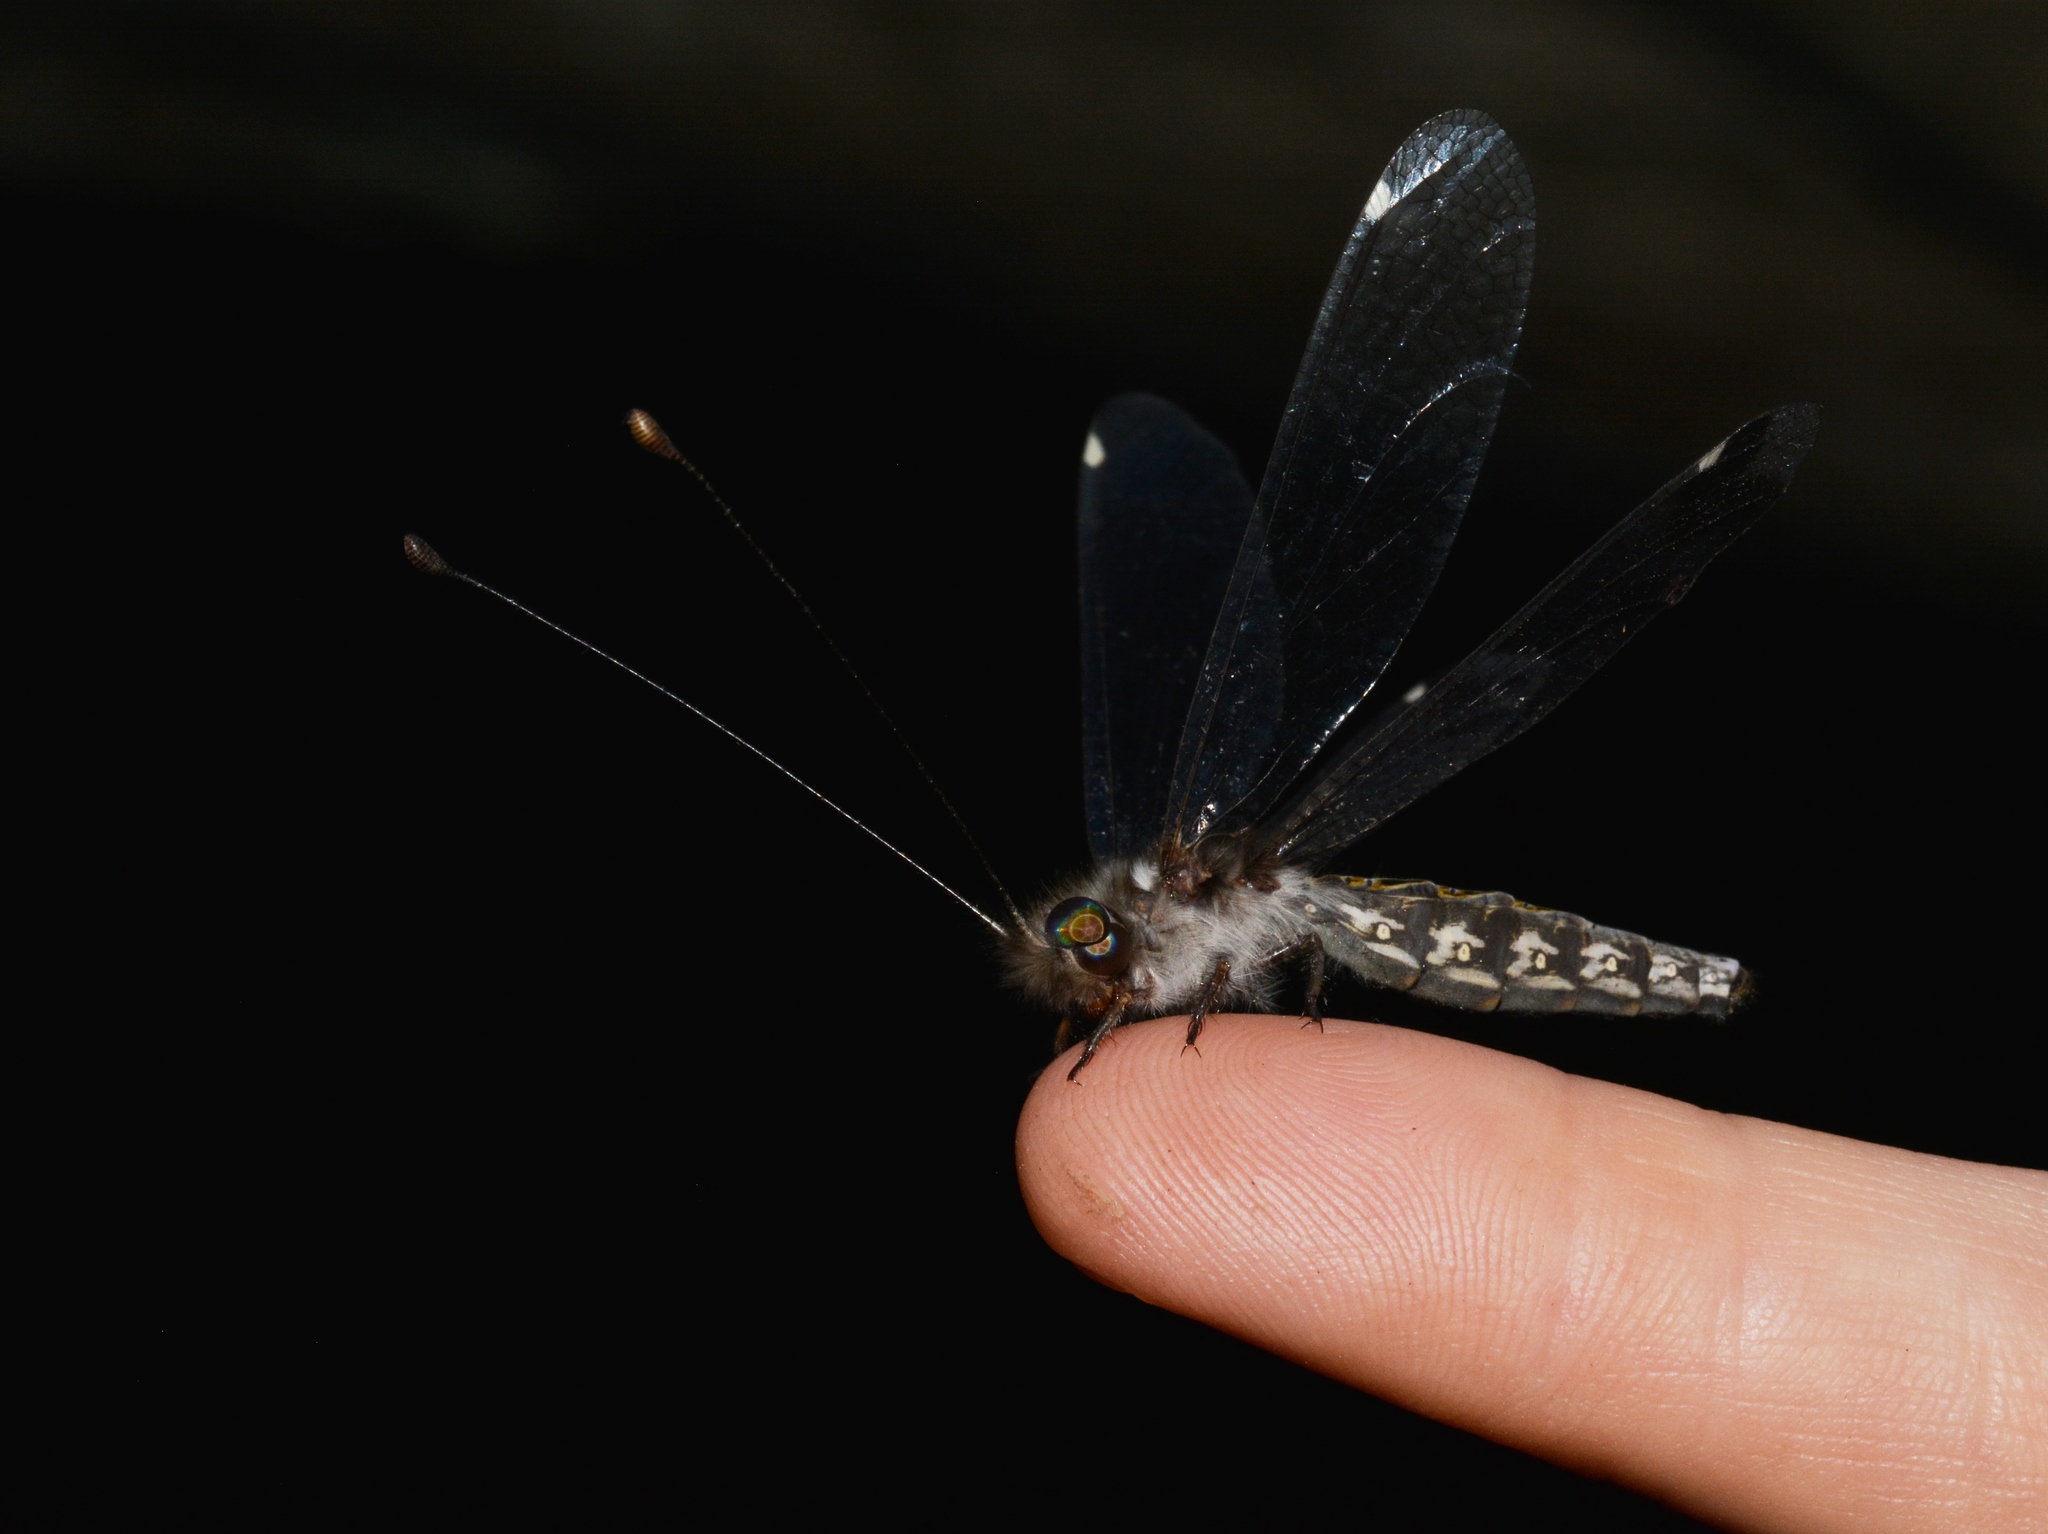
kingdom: Animalia
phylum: Arthropoda
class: Insecta
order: Neuroptera
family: Ascalaphidae
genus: Ululodes
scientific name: Ululodes quadripunctatus
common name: Four-spotted owlfly
